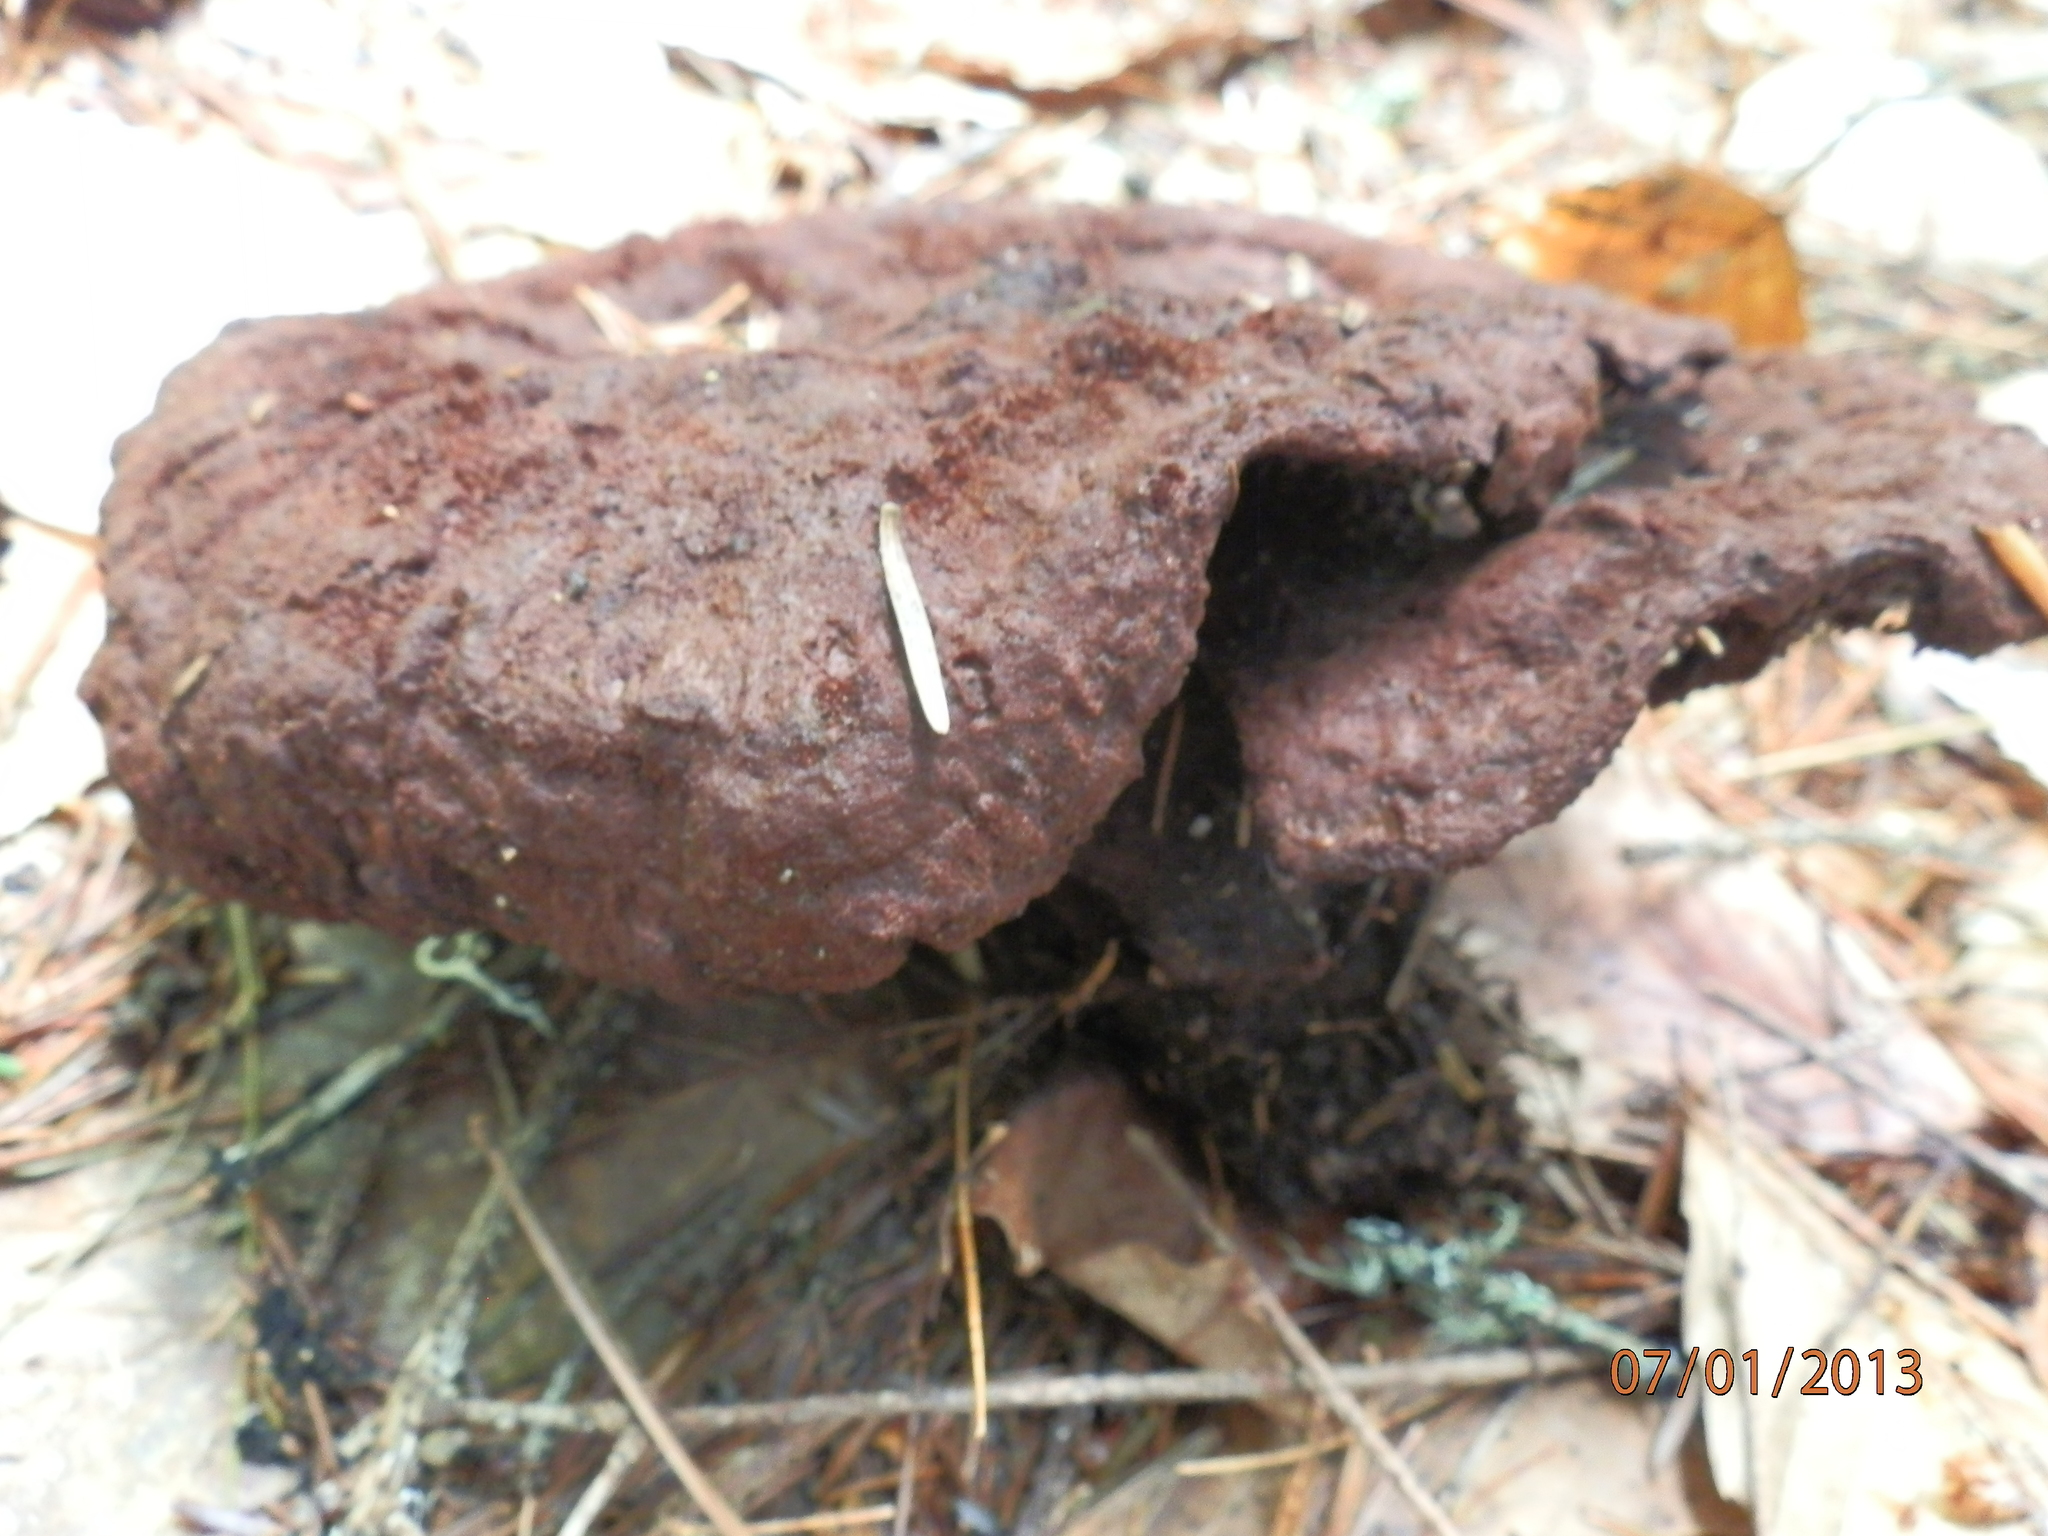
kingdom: Fungi
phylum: Basidiomycota
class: Agaricomycetes
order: Polyporales
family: Laetiporaceae
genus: Phaeolus
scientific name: Phaeolus schweinitzii
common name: Dyer's mazegill
